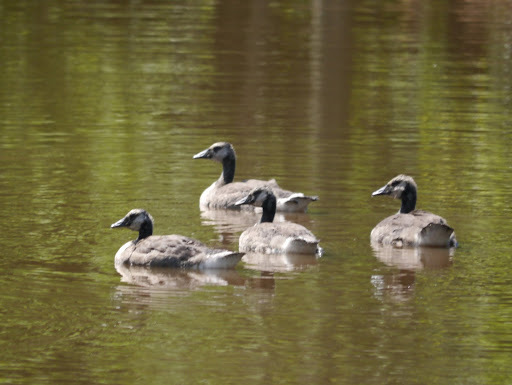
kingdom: Animalia
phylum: Chordata
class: Aves
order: Anseriformes
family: Anatidae
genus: Branta
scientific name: Branta canadensis
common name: Canada goose
